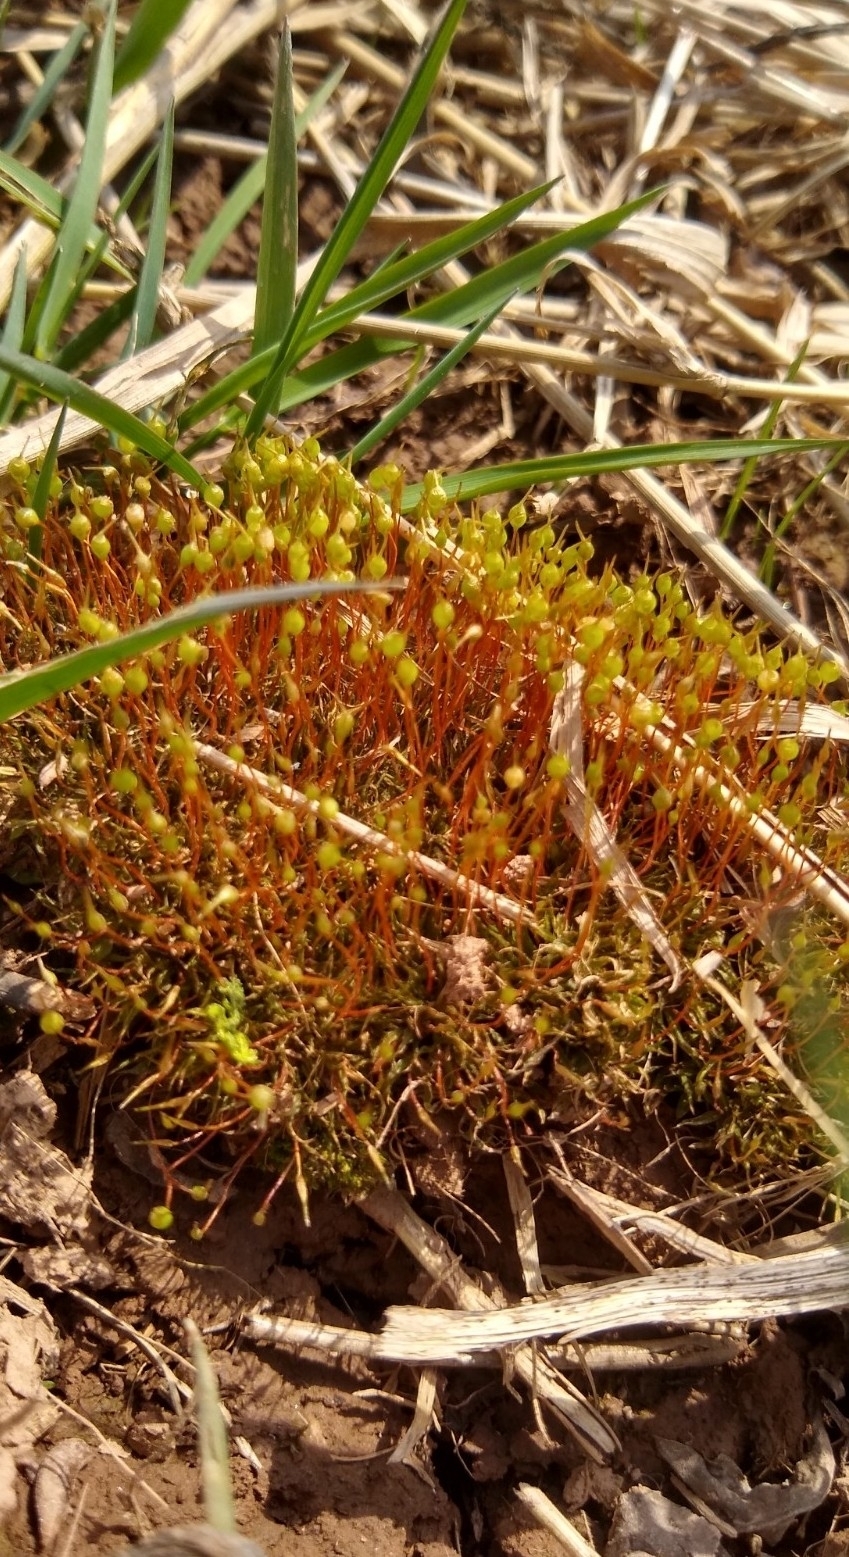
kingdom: Plantae
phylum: Bryophyta
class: Bryopsida
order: Funariales
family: Funariaceae
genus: Physcomitrium
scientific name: Physcomitrium pyriforme
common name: Common bladder-moss
